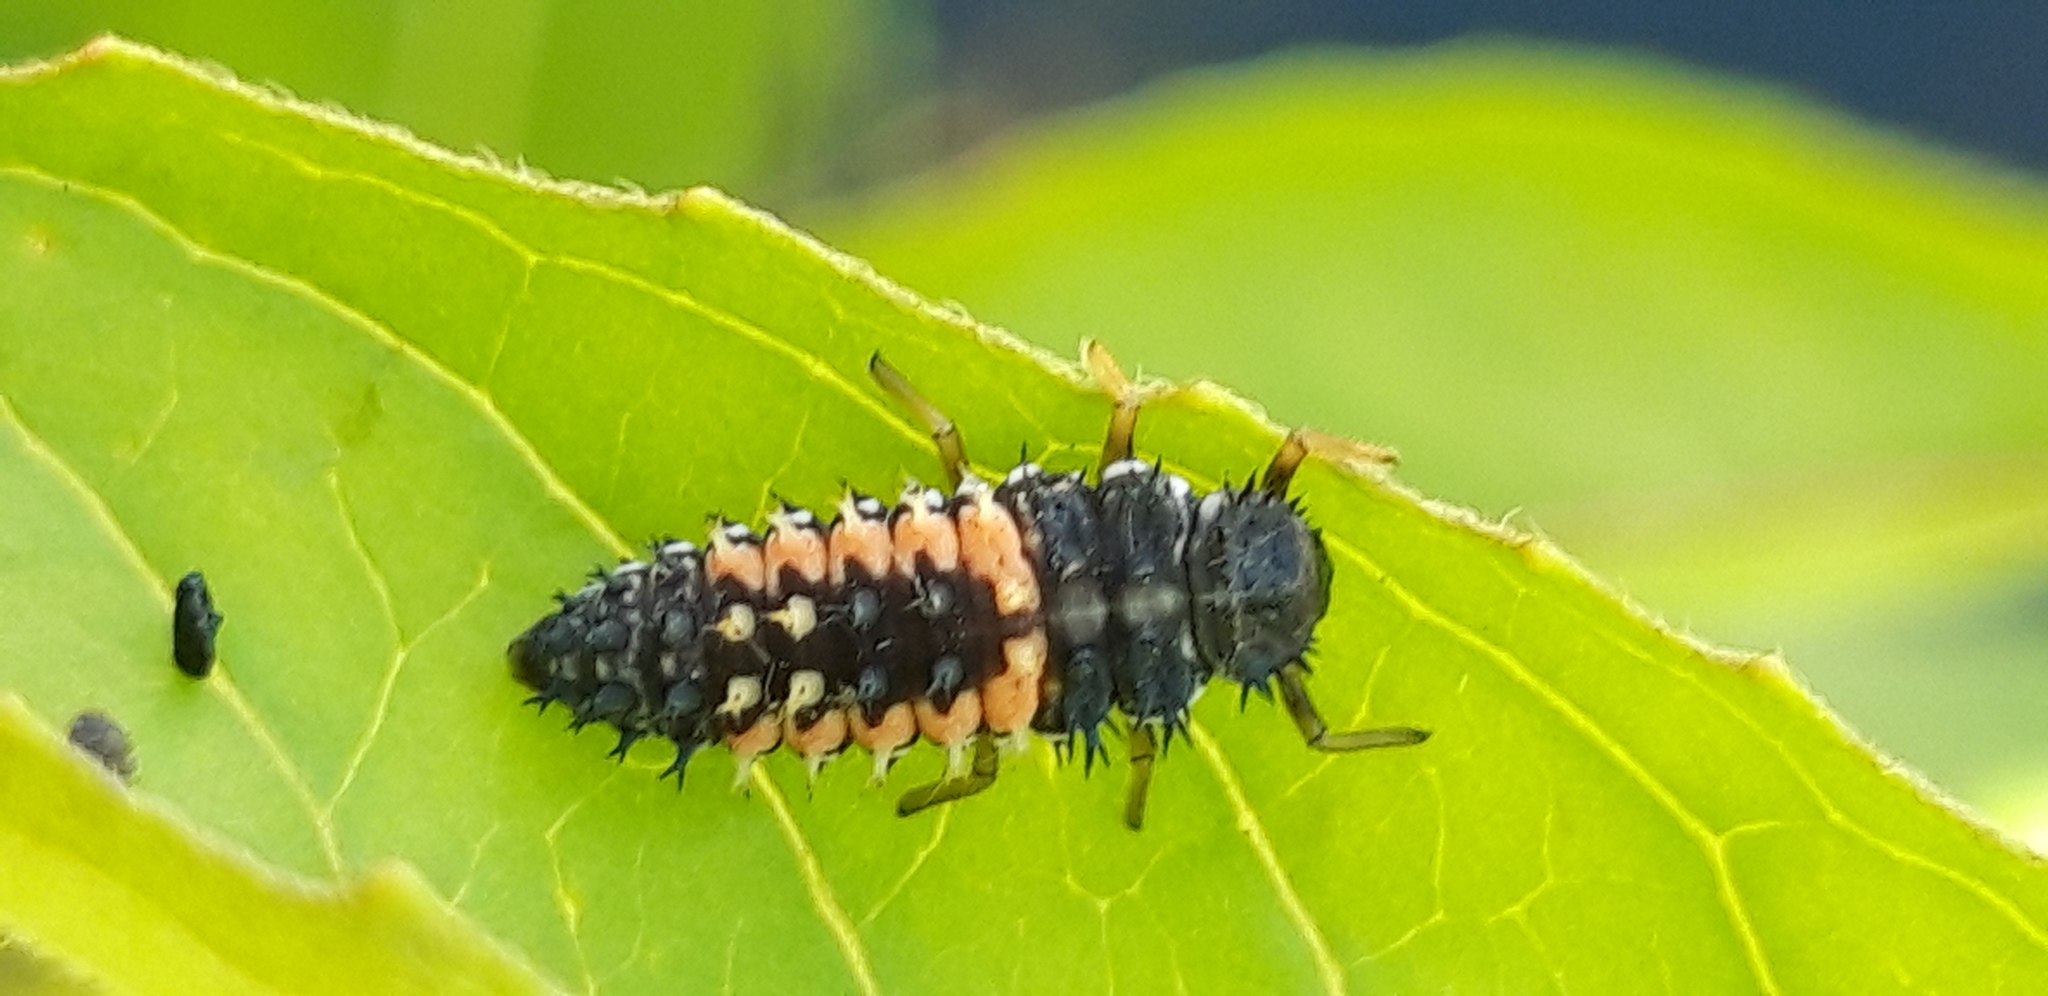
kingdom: Animalia
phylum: Arthropoda
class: Insecta
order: Coleoptera
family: Coccinellidae
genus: Harmonia
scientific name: Harmonia axyridis
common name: Harlequin ladybird
